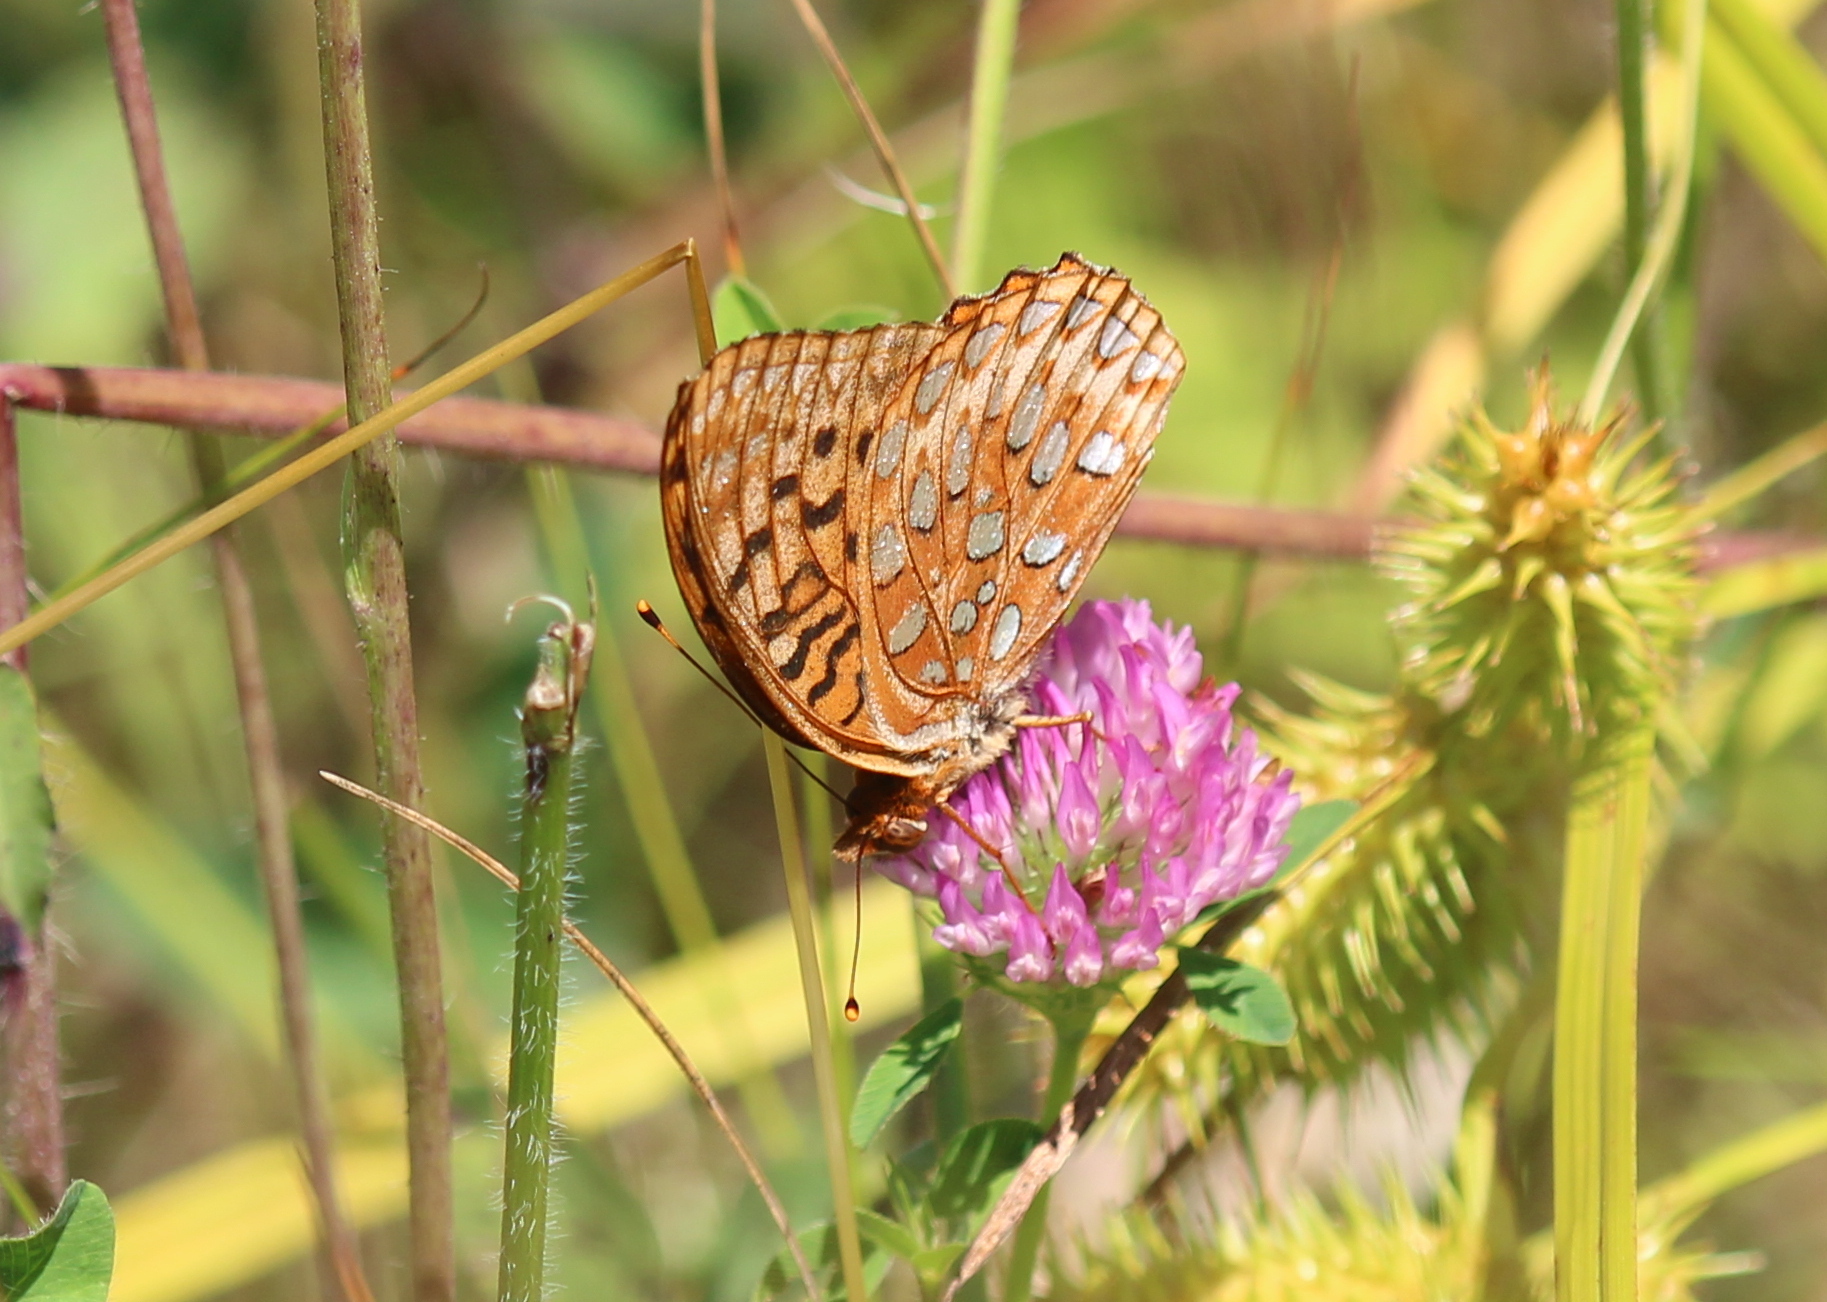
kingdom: Animalia
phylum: Arthropoda
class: Insecta
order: Lepidoptera
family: Nymphalidae
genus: Speyeria
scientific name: Speyeria aphrodite
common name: Aphrodite friitllary
